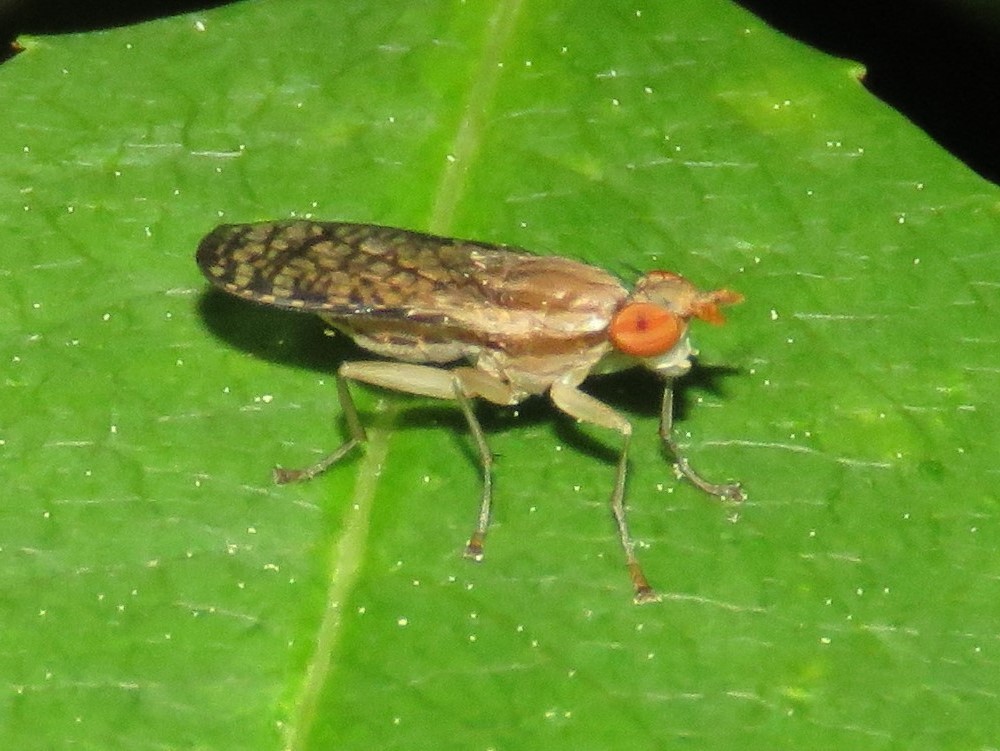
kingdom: Animalia
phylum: Arthropoda
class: Insecta
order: Diptera
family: Sciomyzidae
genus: Trypetoptera
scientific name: Trypetoptera canadensis
